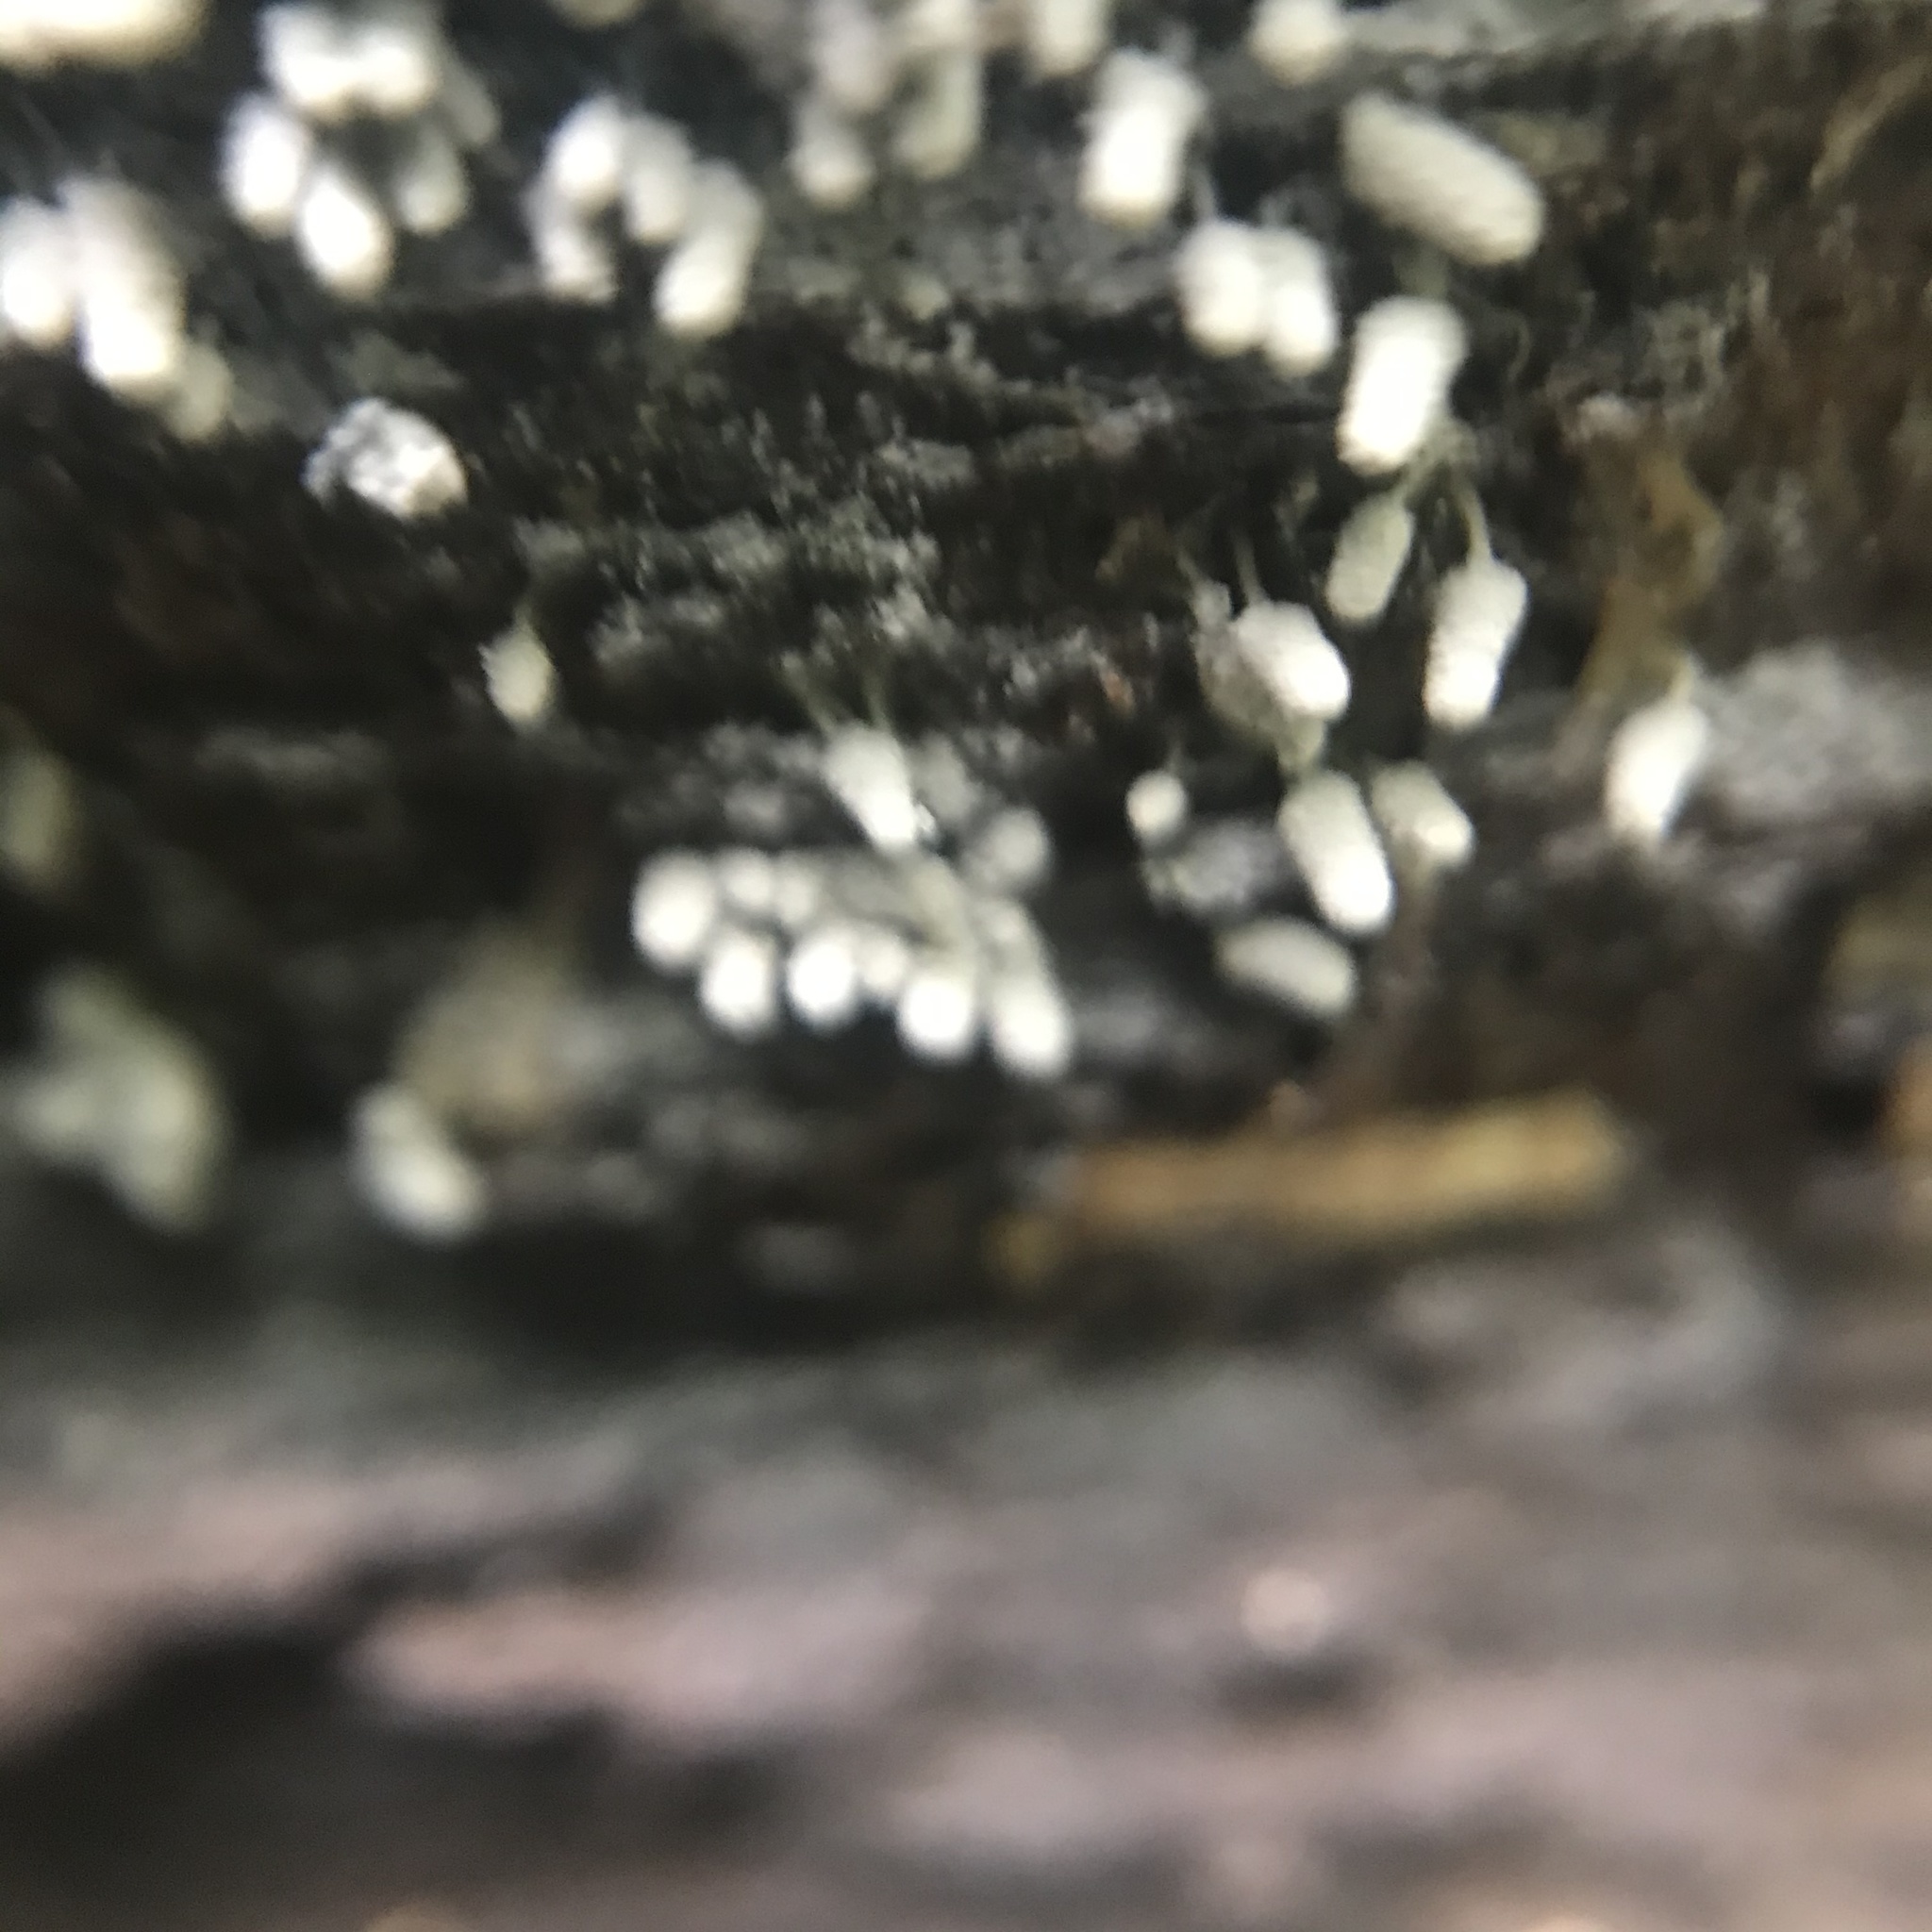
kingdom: Protozoa
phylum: Mycetozoa
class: Myxomycetes
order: Trichiales
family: Arcyriaceae
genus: Arcyria
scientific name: Arcyria cinerea
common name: White carnival candy slime mold
